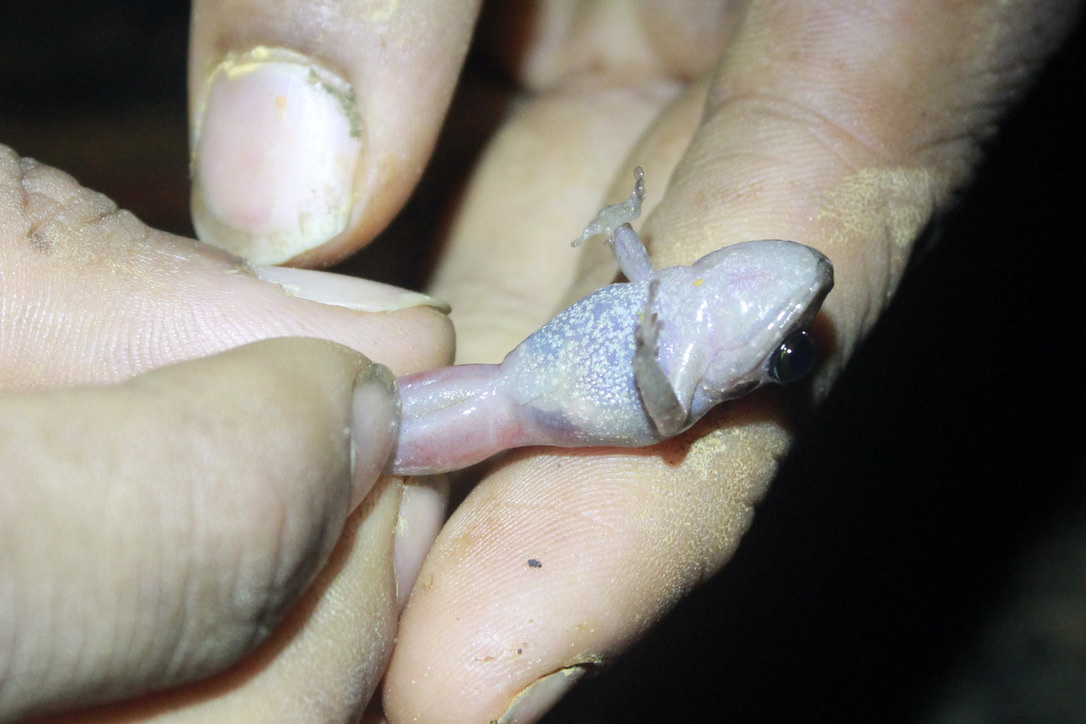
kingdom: Animalia
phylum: Chordata
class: Amphibia
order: Anura
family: Craugastoridae
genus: Pristimantis
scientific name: Pristimantis urichi
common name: Lesser antilles robber frog
